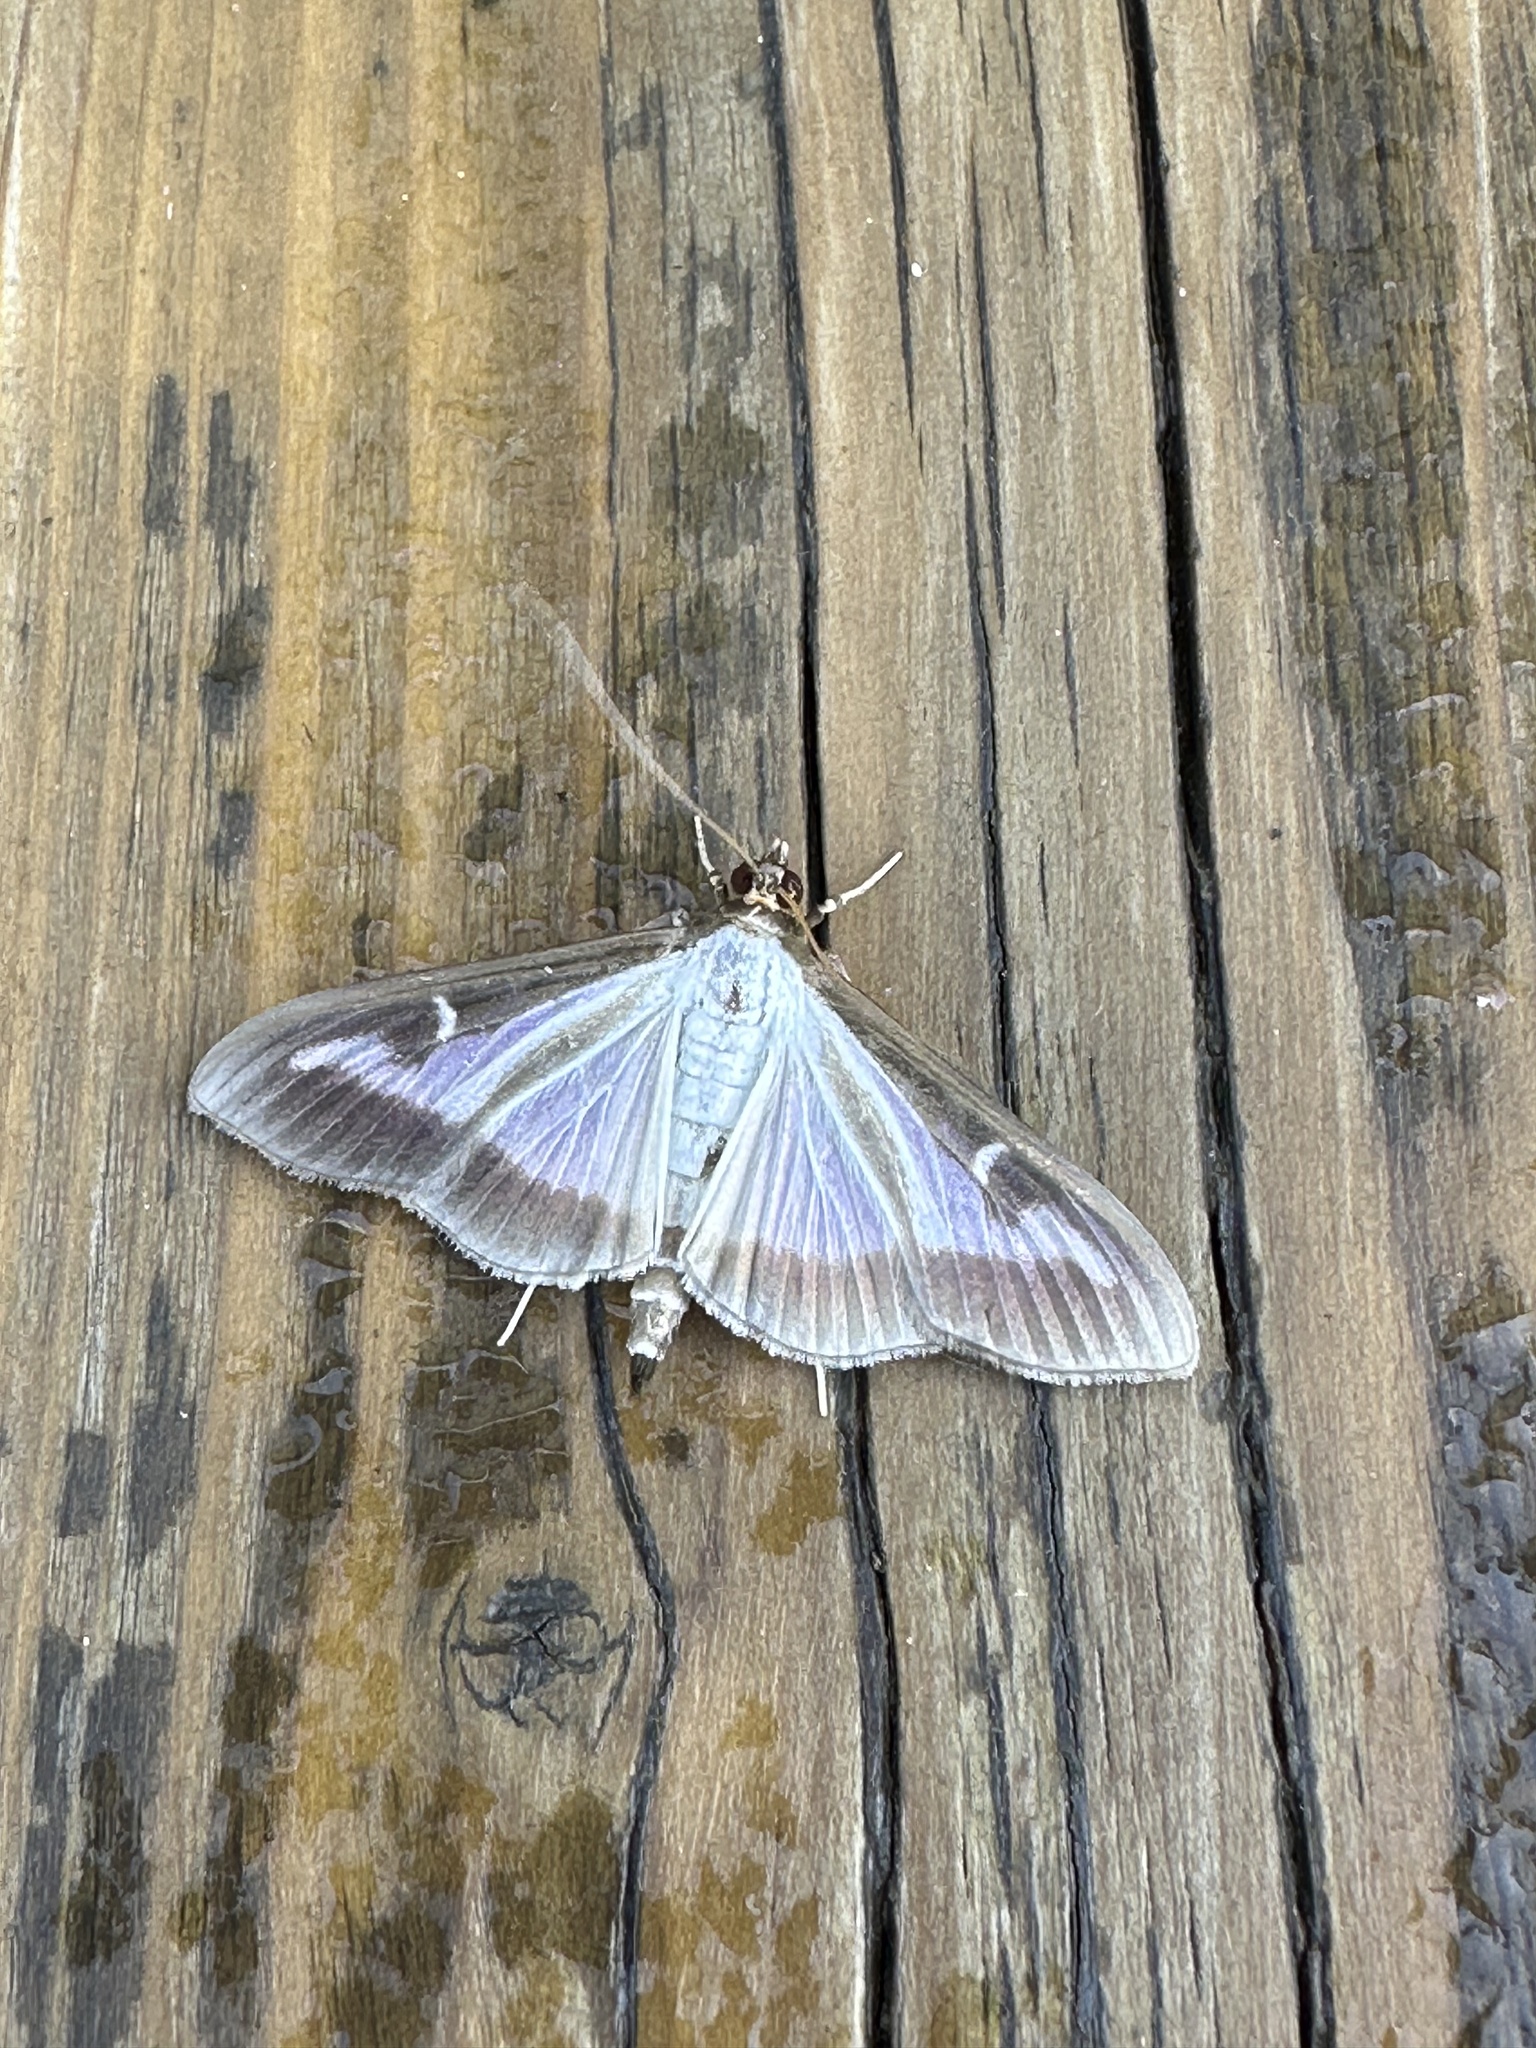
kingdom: Animalia
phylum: Arthropoda
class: Insecta
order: Lepidoptera
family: Crambidae
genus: Cydalima
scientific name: Cydalima perspectalis
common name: Box tree moth
